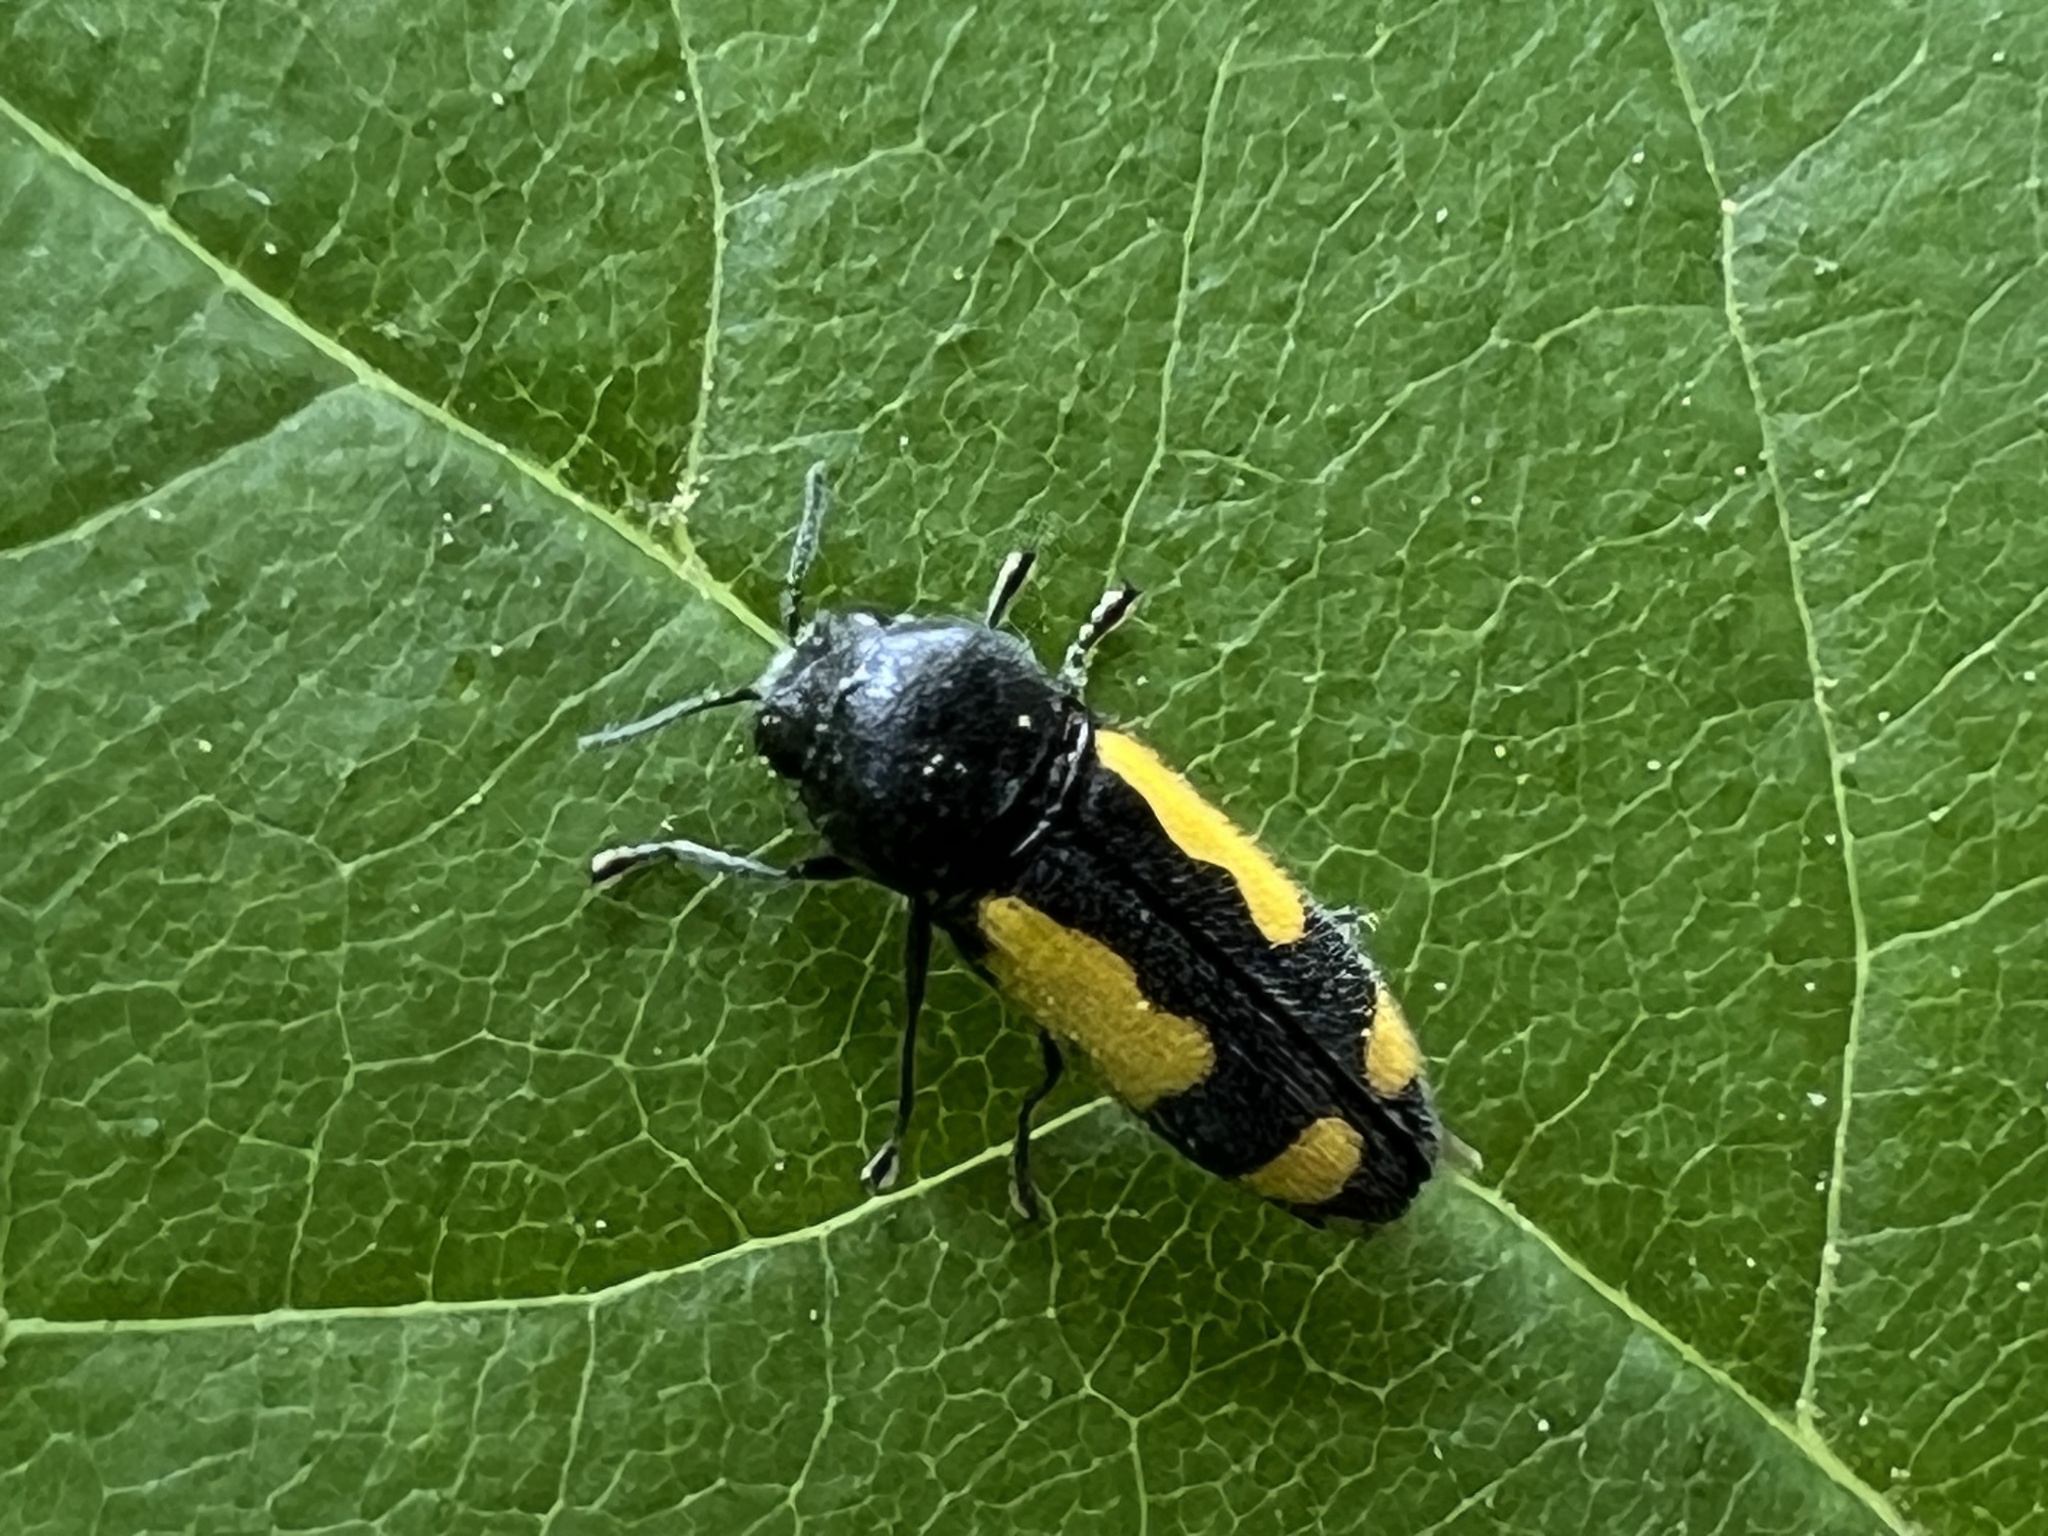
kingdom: Animalia
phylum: Arthropoda
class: Insecta
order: Coleoptera
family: Buprestidae
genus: Ptosima
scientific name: Ptosima gibbicollis
